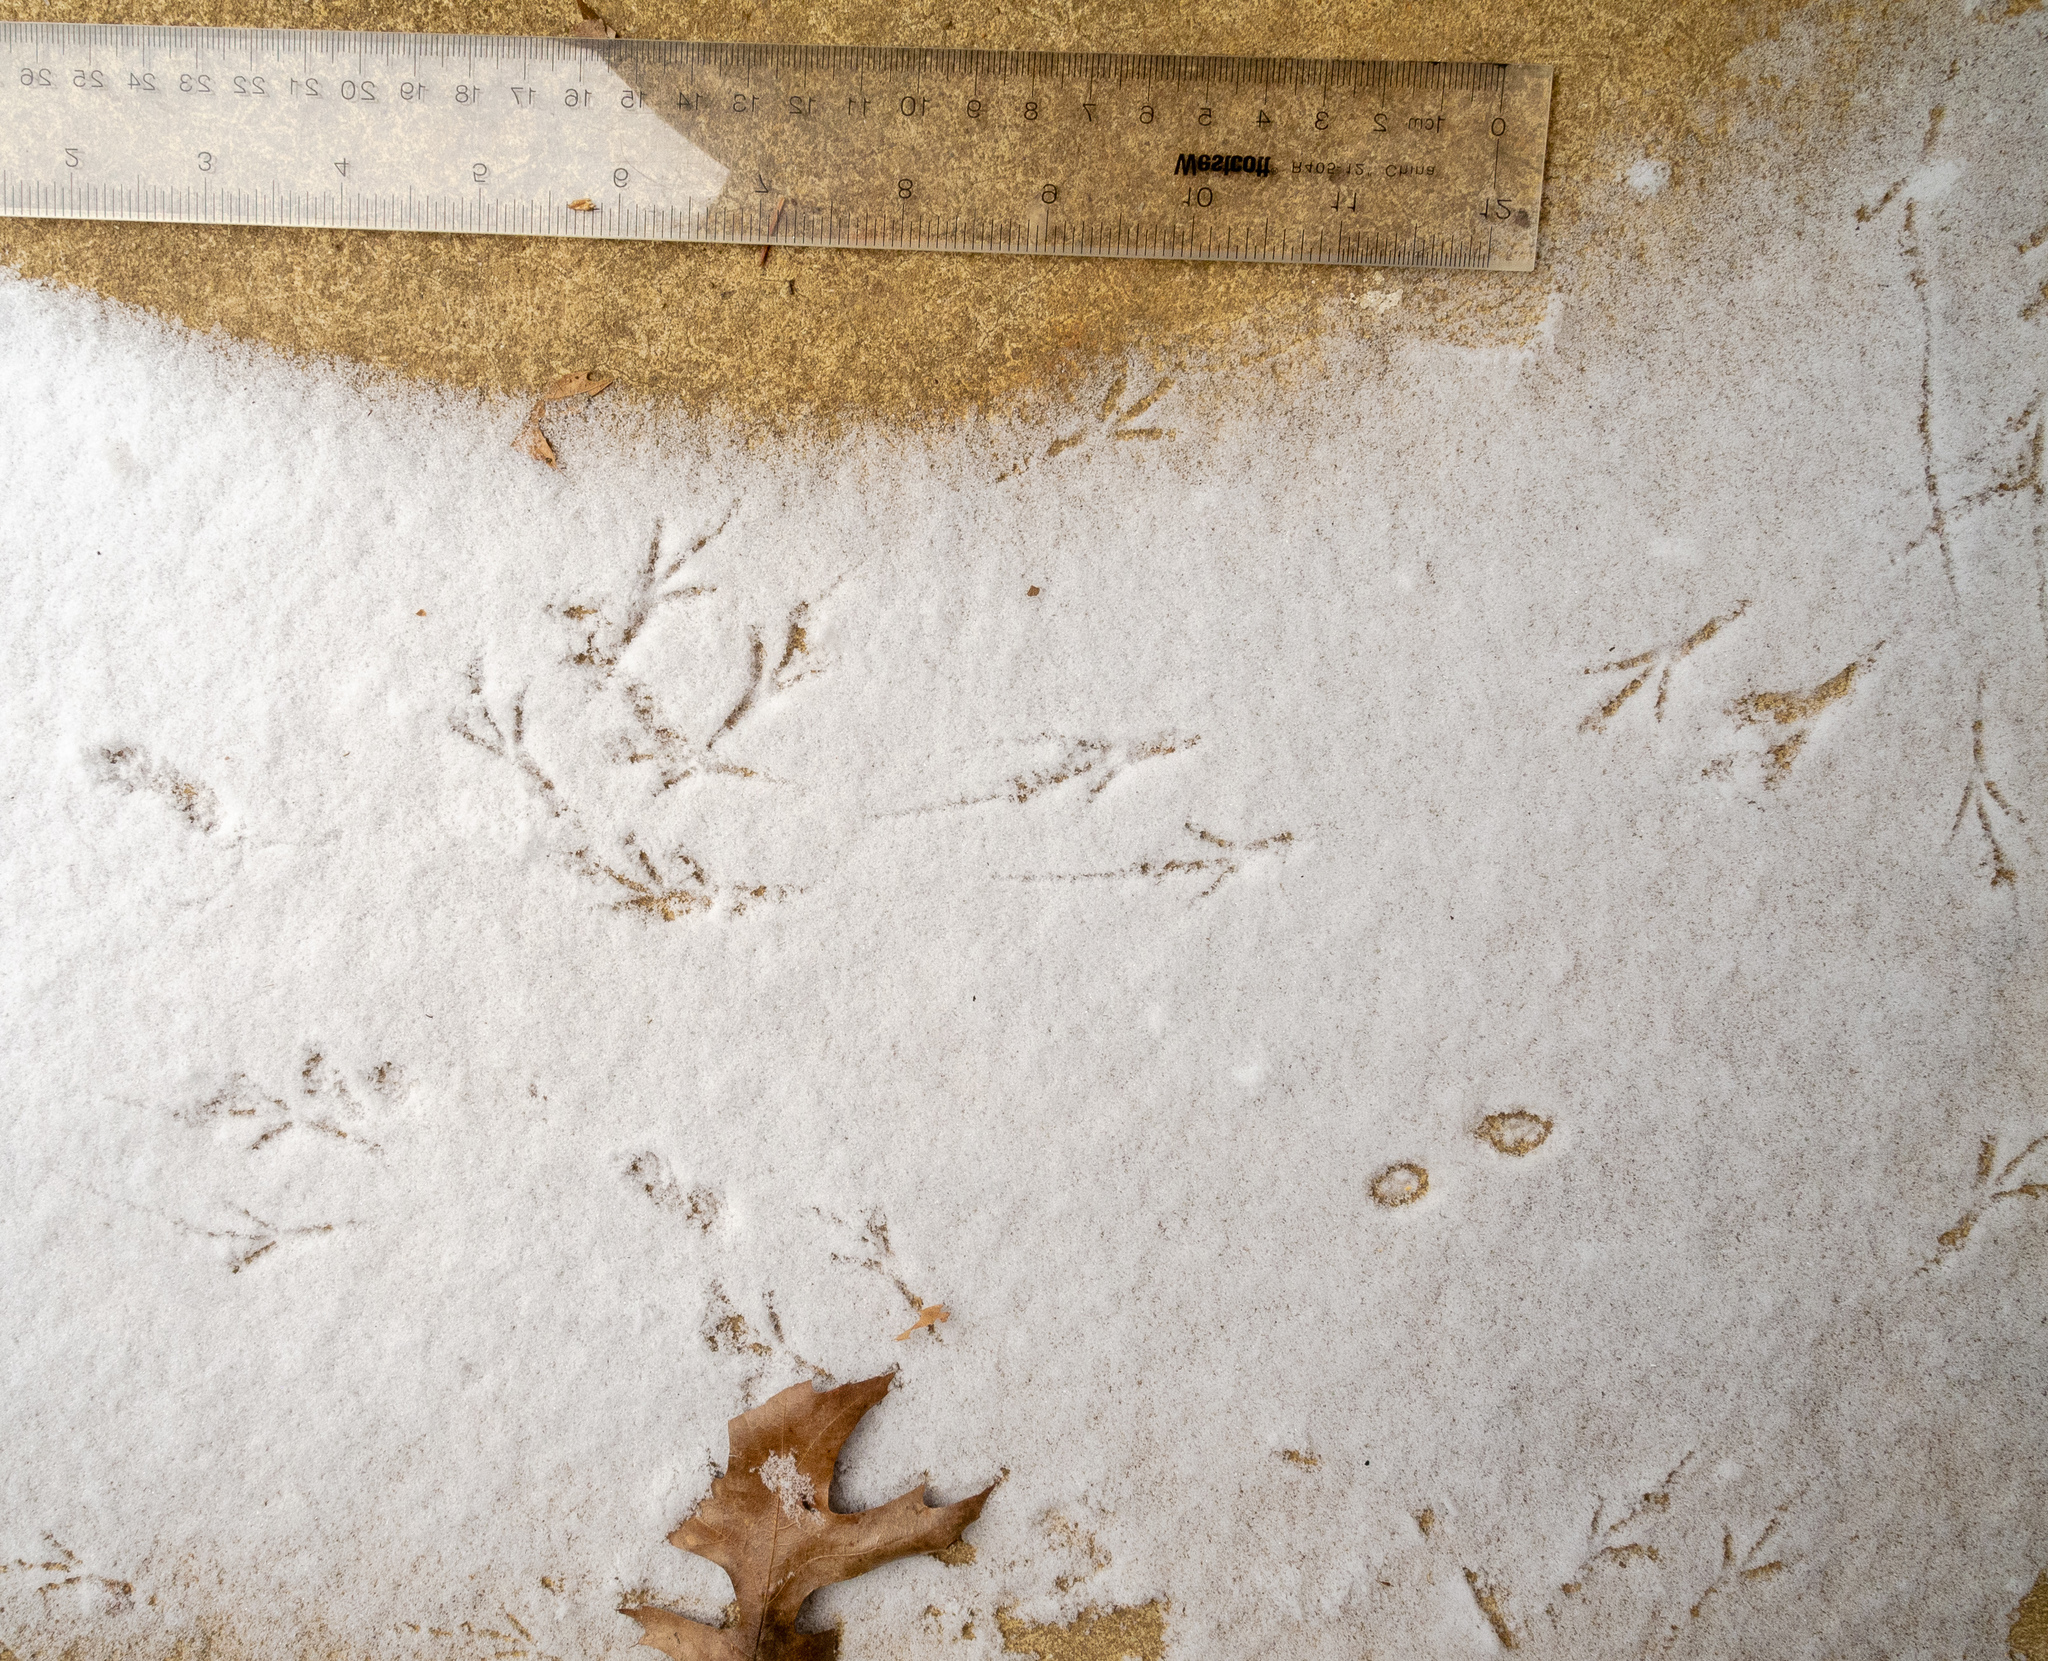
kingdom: Animalia
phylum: Chordata
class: Aves
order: Passeriformes
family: Troglodytidae
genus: Thryothorus
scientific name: Thryothorus ludovicianus
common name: Carolina wren
